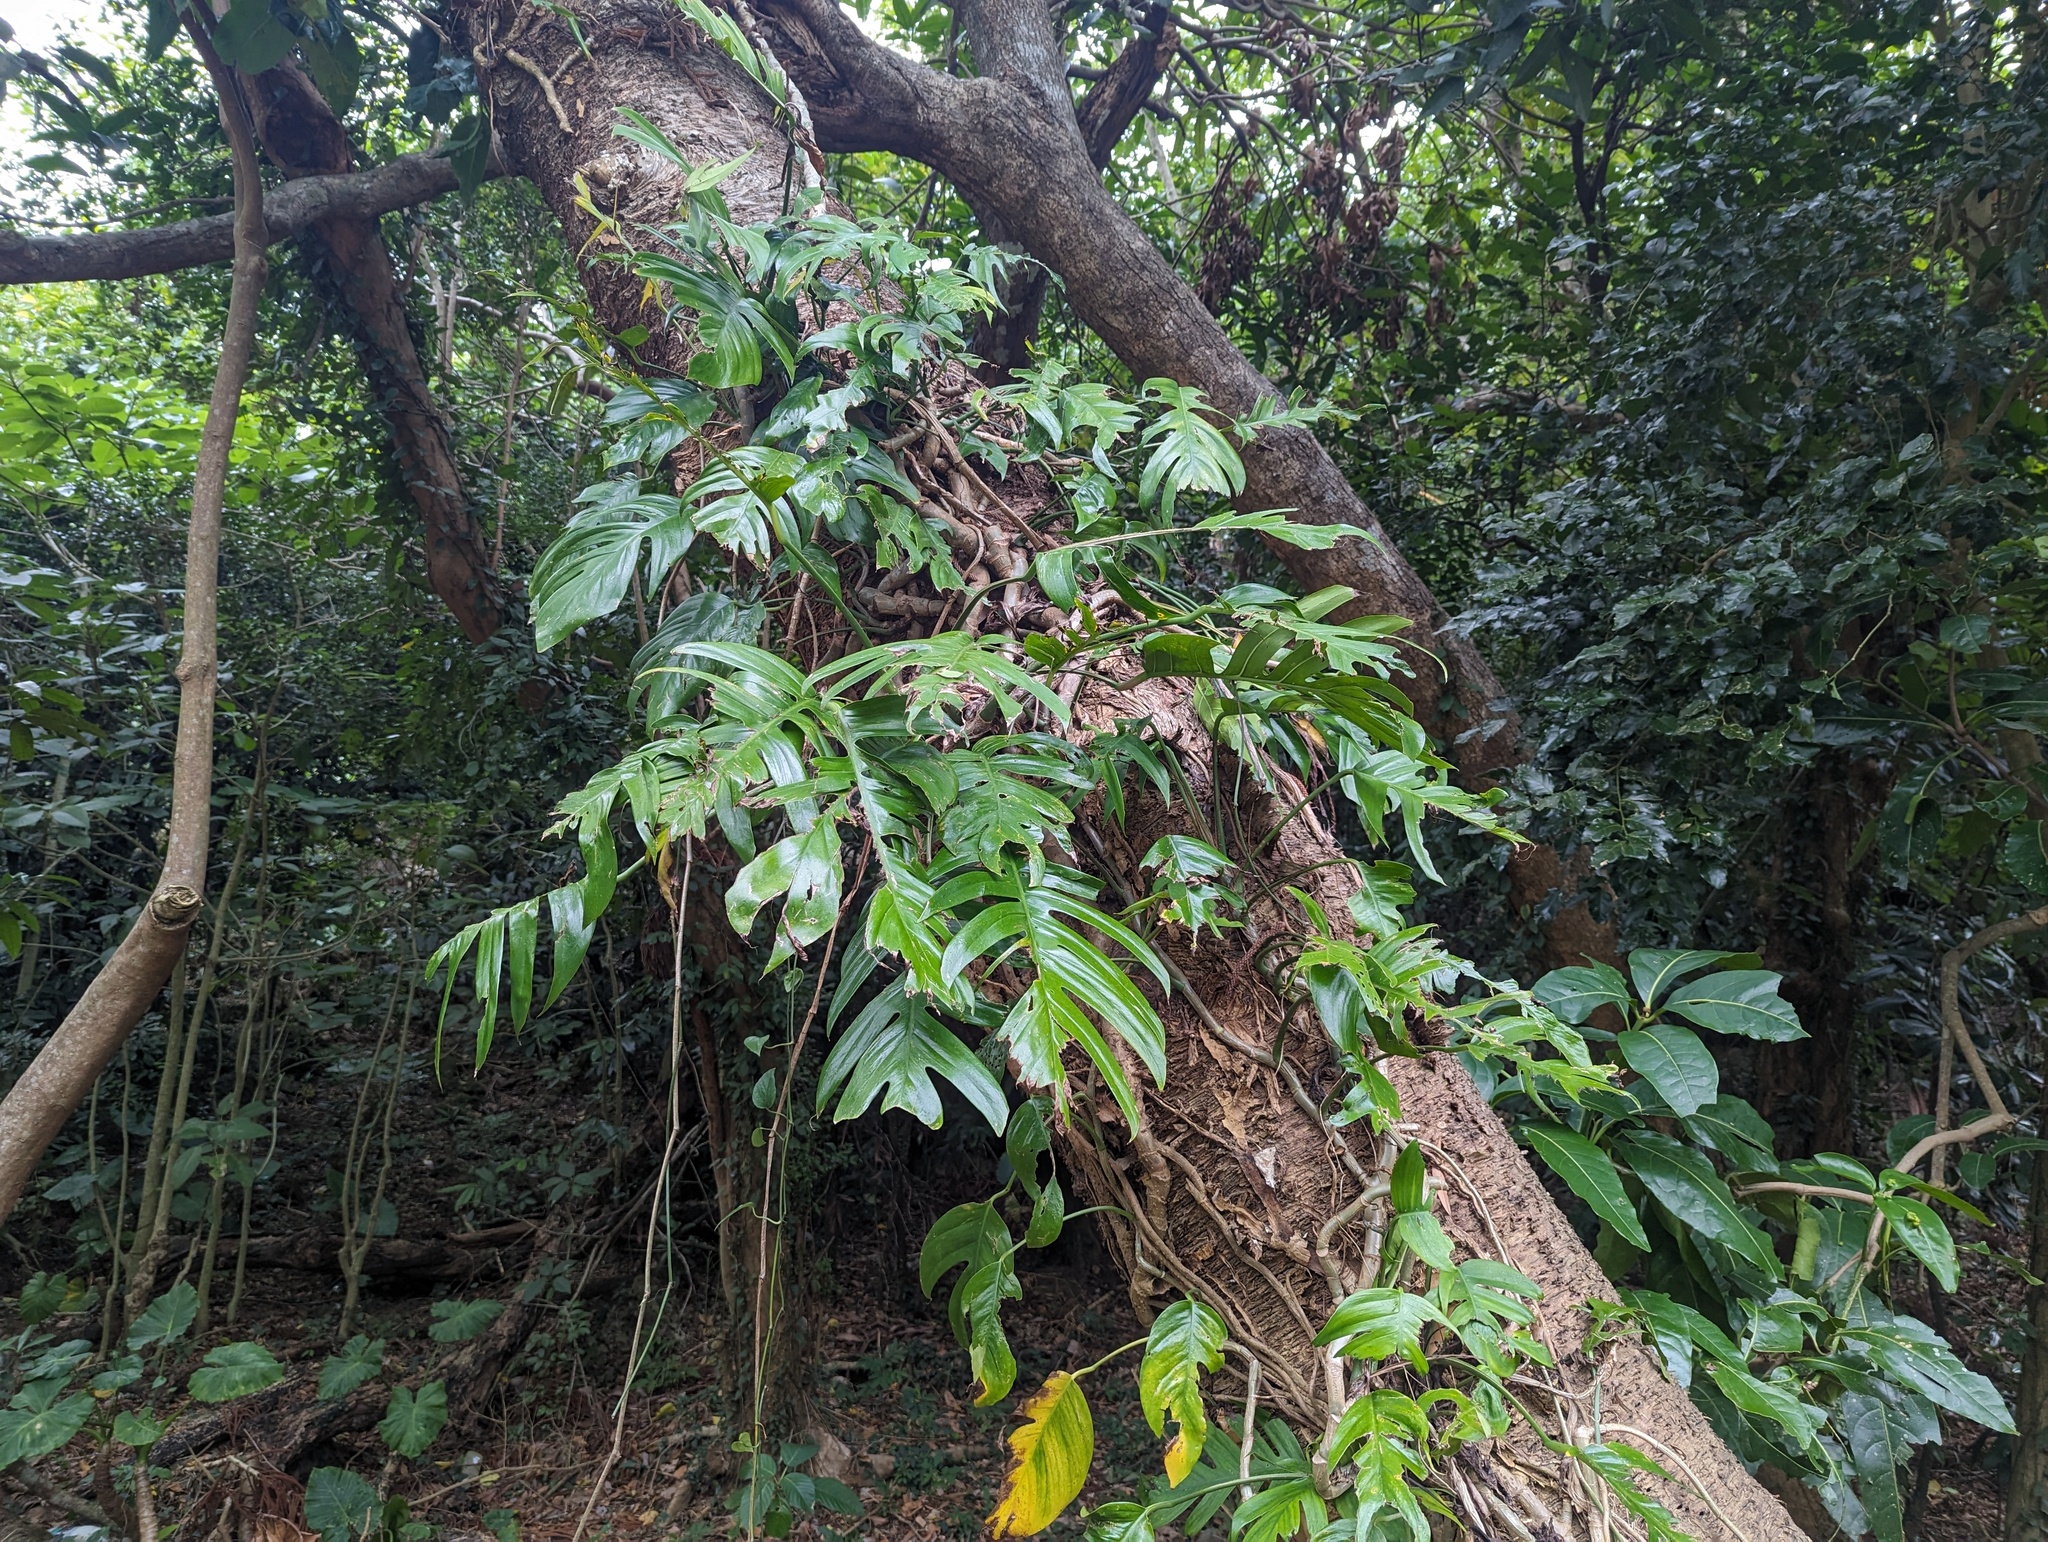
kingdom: Plantae
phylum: Tracheophyta
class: Liliopsida
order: Alismatales
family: Araceae
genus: Epipremnum
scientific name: Epipremnum pinnatum
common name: Centipede tongavine
